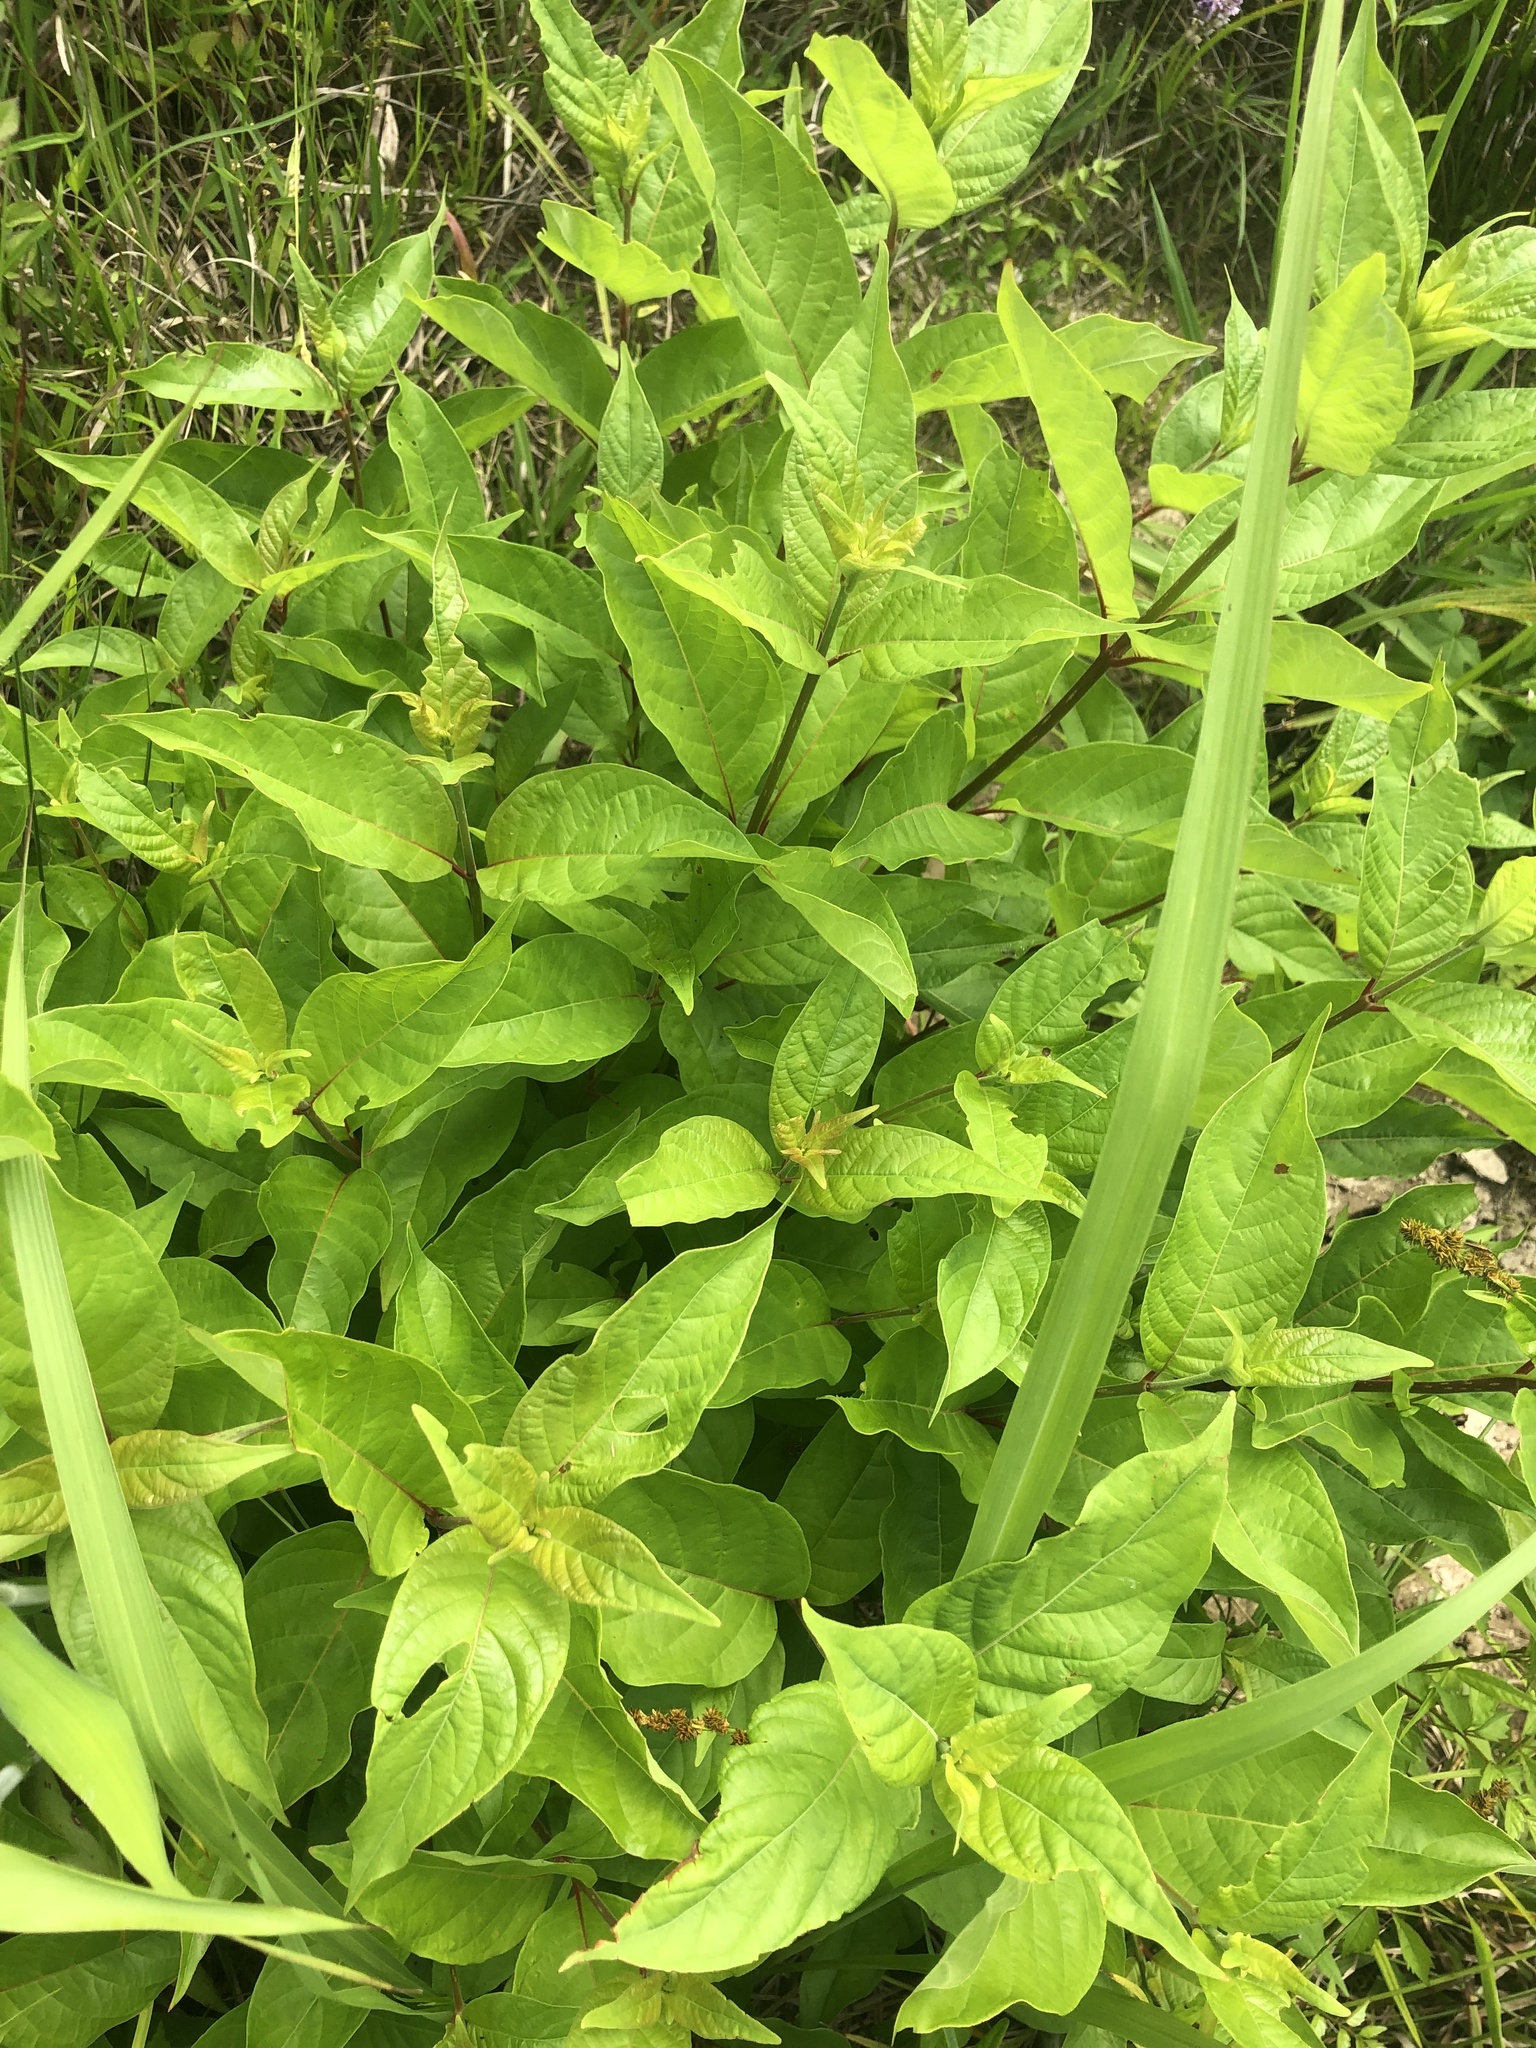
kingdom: Plantae
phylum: Tracheophyta
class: Magnoliopsida
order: Gentianales
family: Rubiaceae
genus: Cephalanthus
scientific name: Cephalanthus occidentalis
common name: Button-willow
